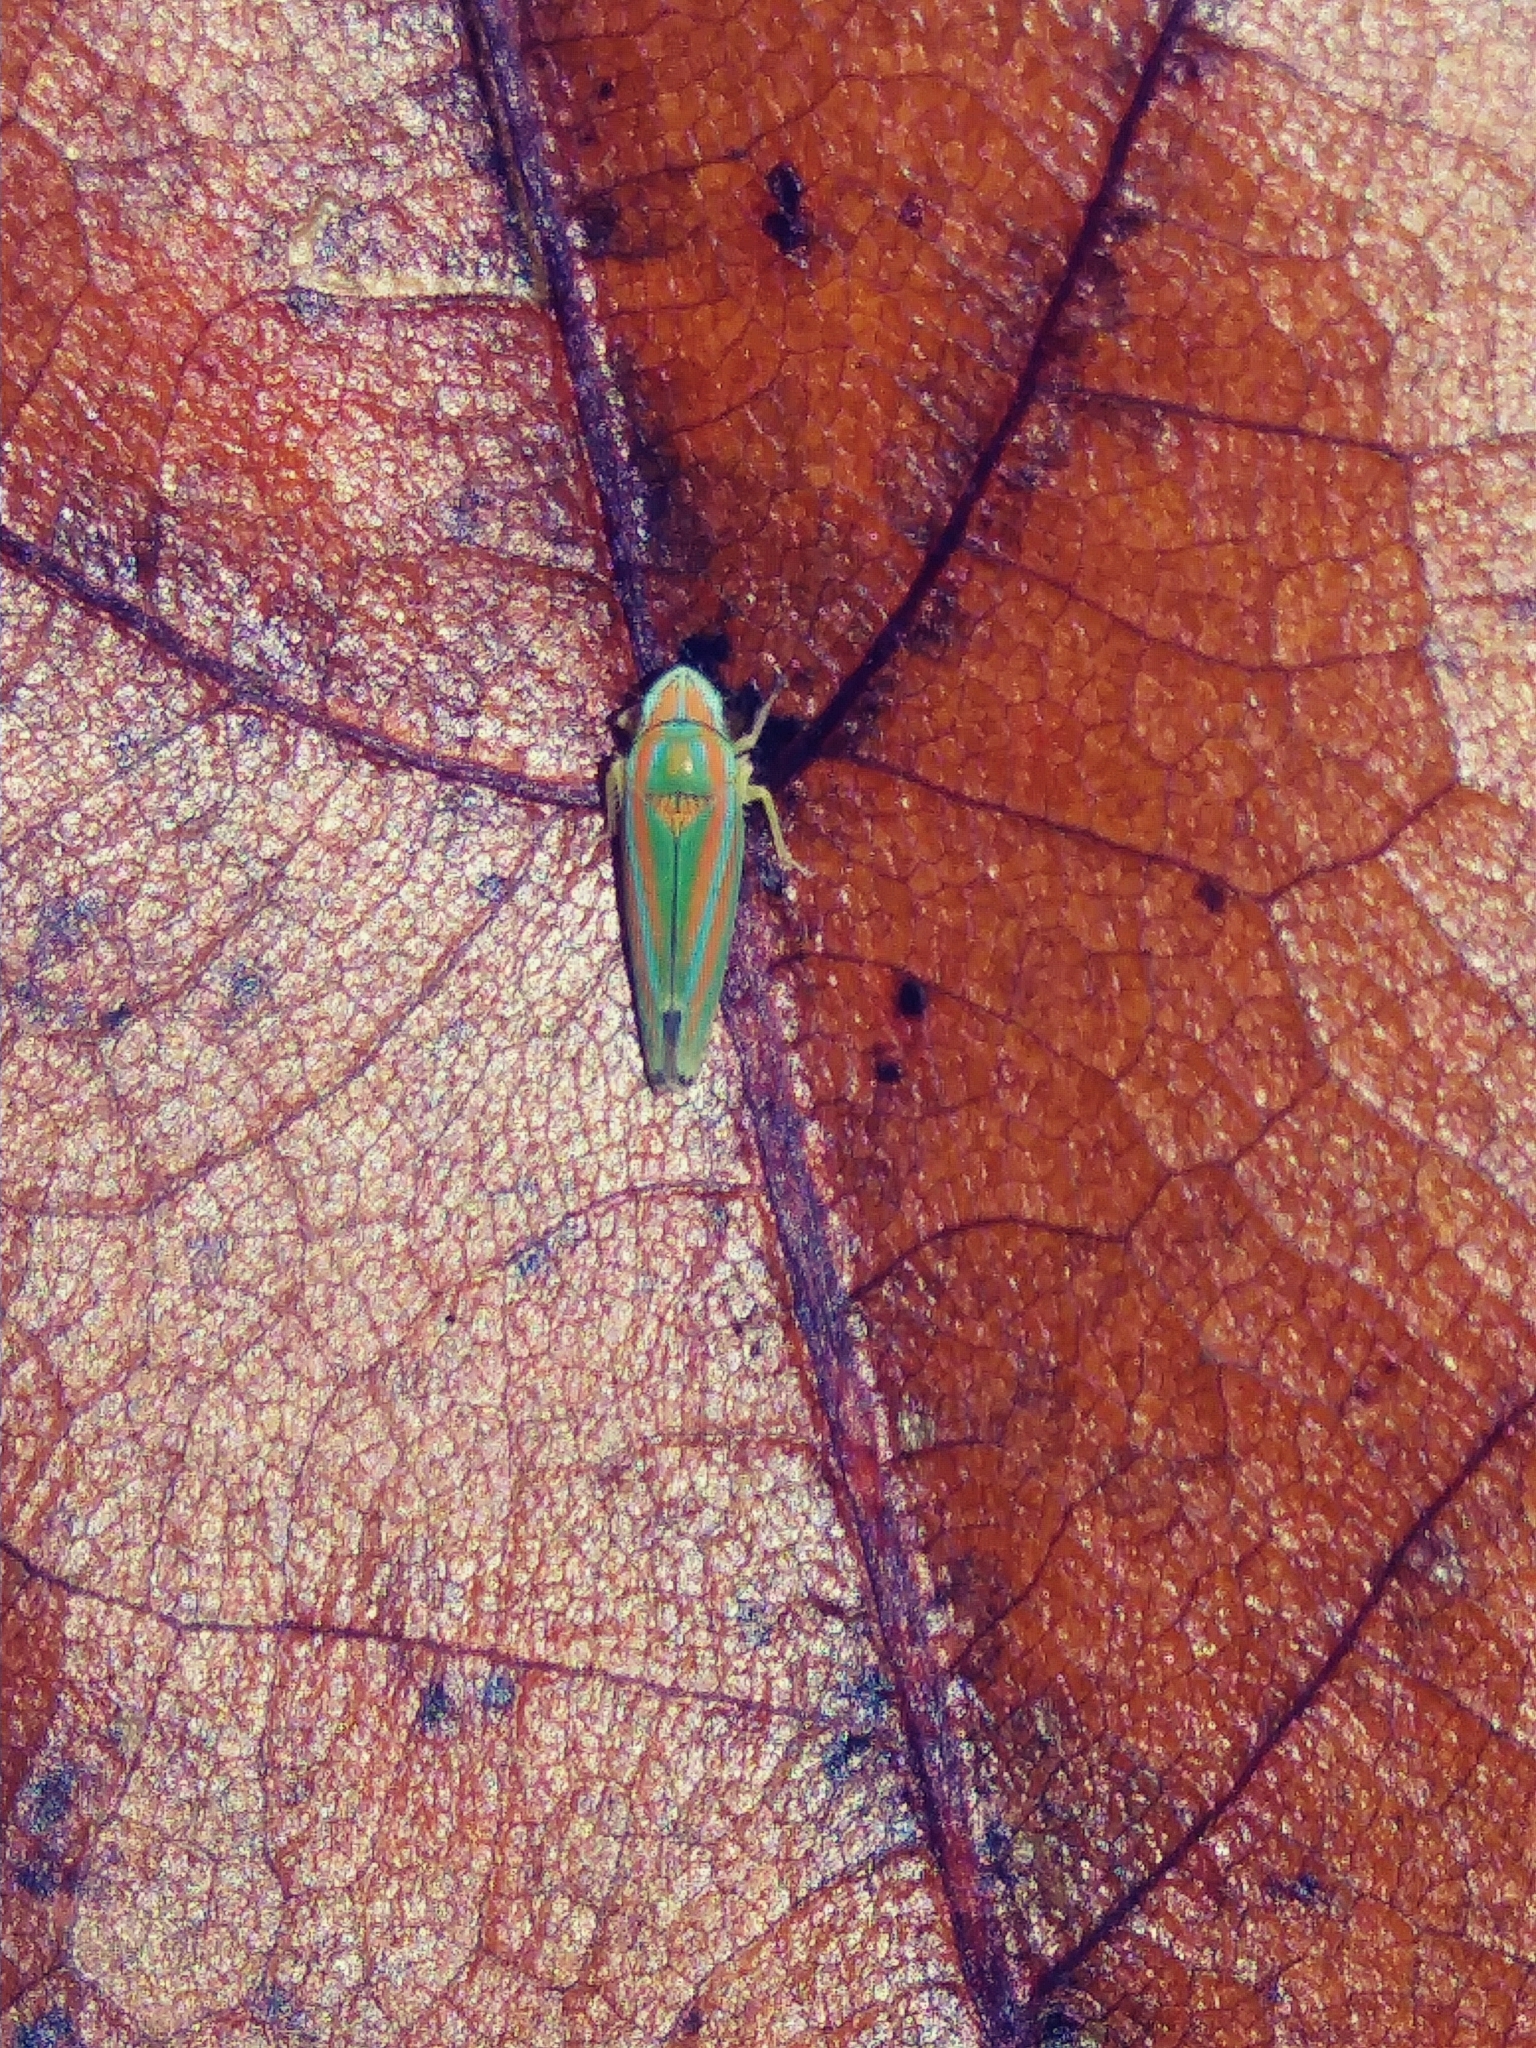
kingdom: Animalia
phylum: Arthropoda
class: Insecta
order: Hemiptera
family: Cicadellidae
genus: Graphocephala
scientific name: Graphocephala versuta
